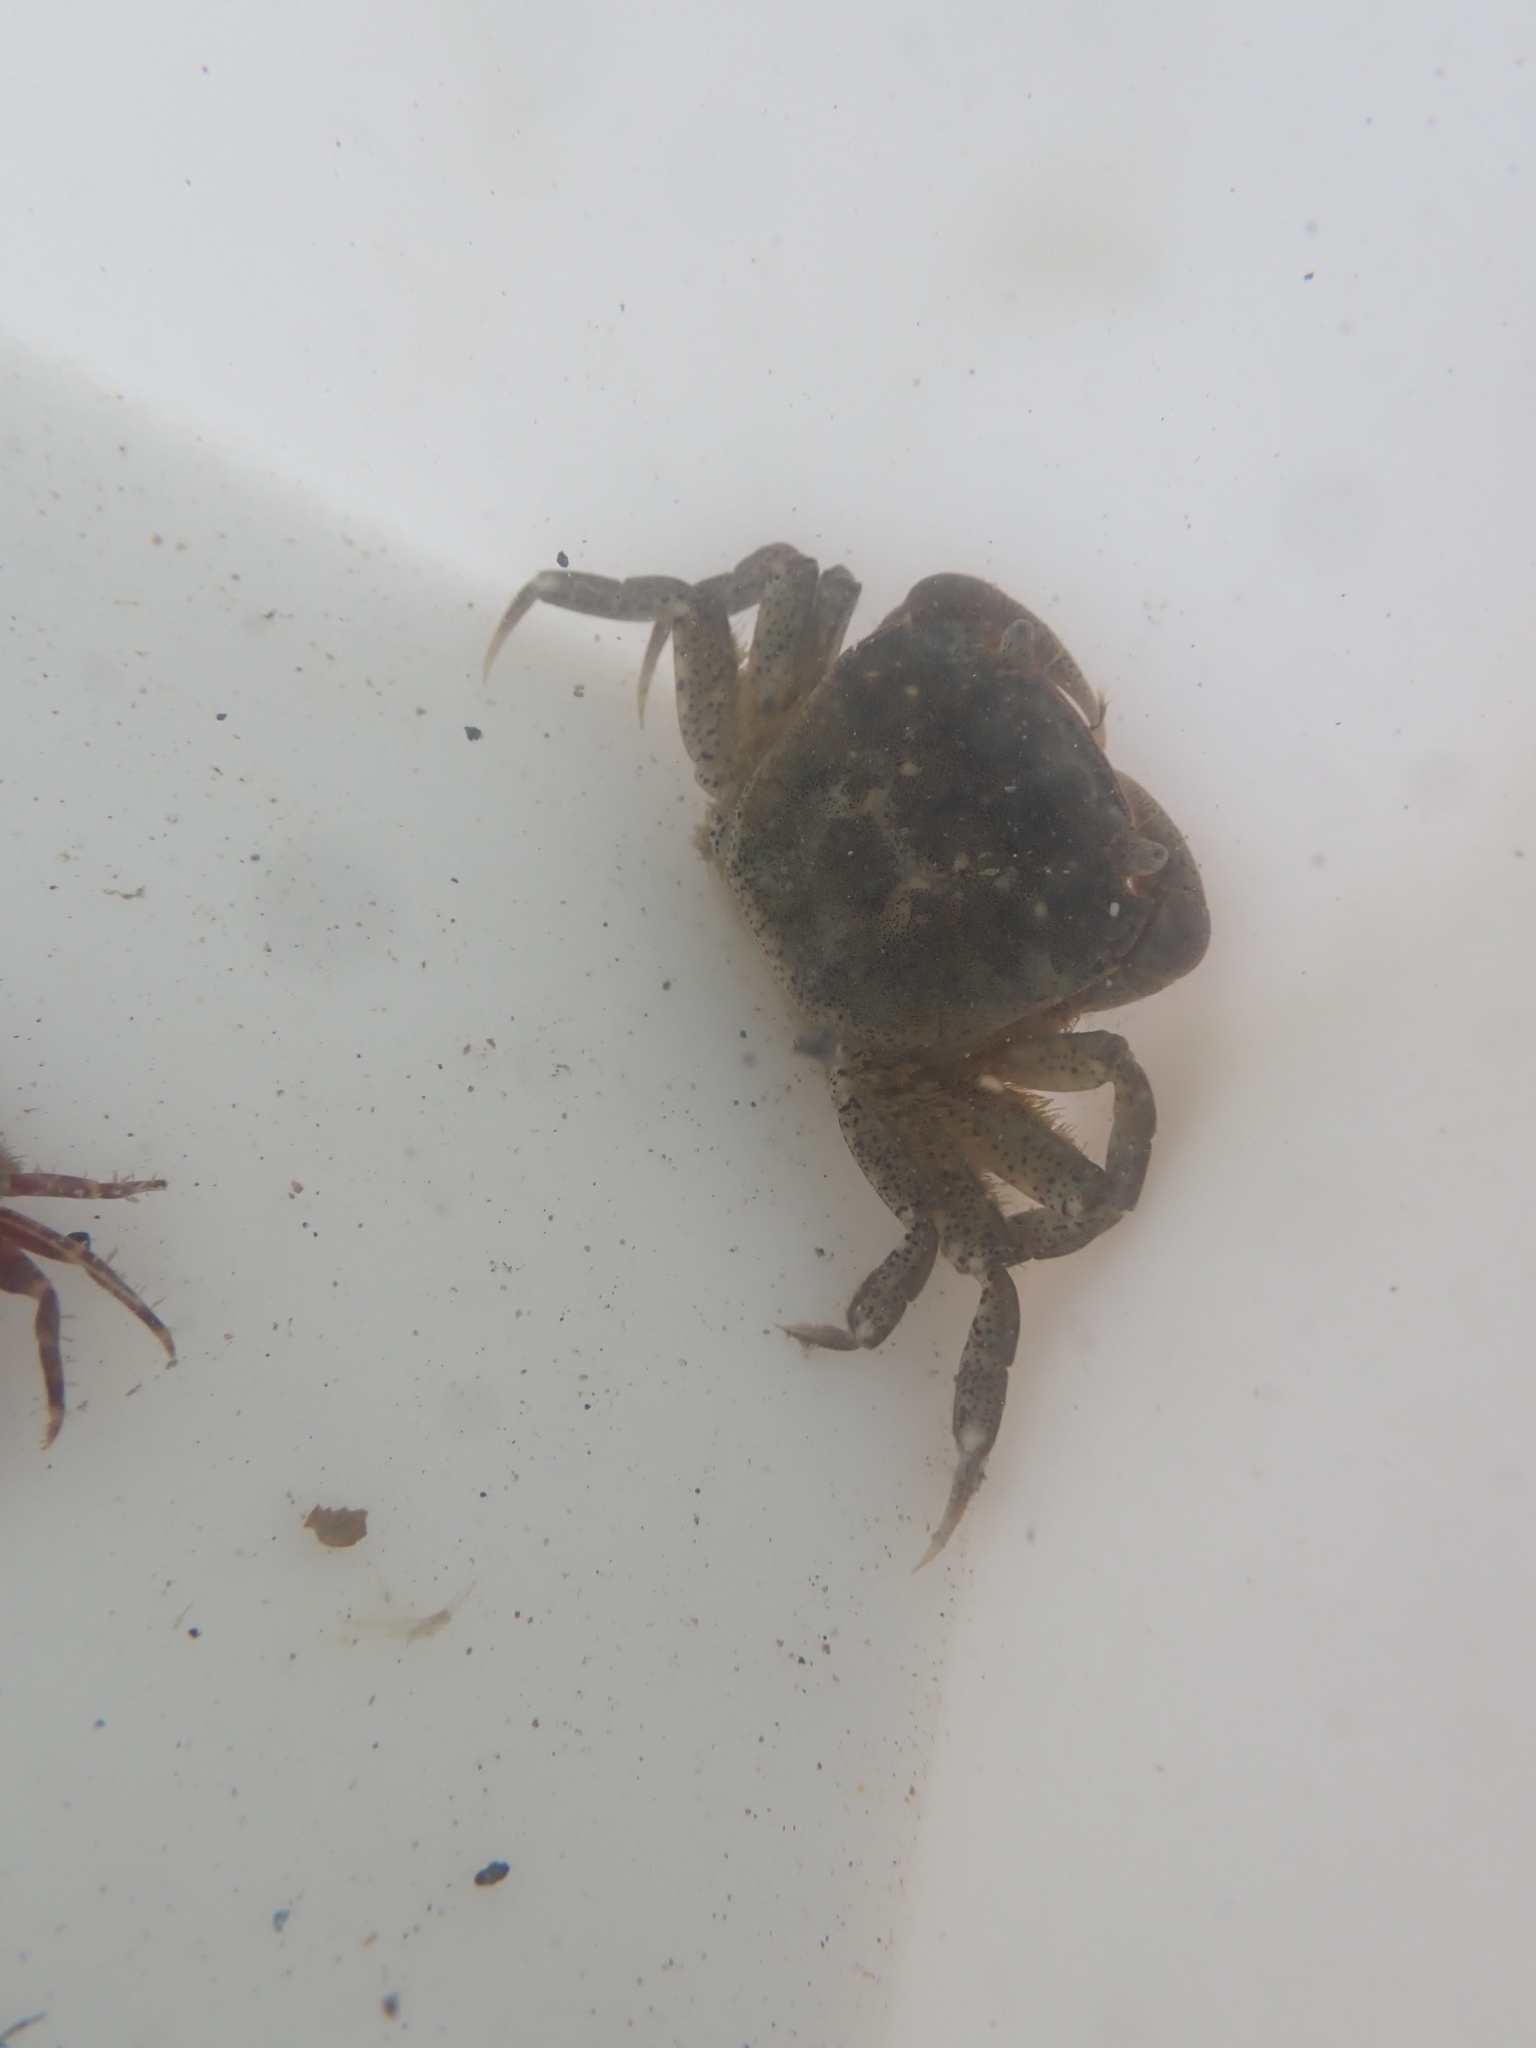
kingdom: Animalia
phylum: Arthropoda
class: Malacostraca
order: Decapoda
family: Varunidae
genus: Hemigrapsus
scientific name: Hemigrapsus crenulatus
